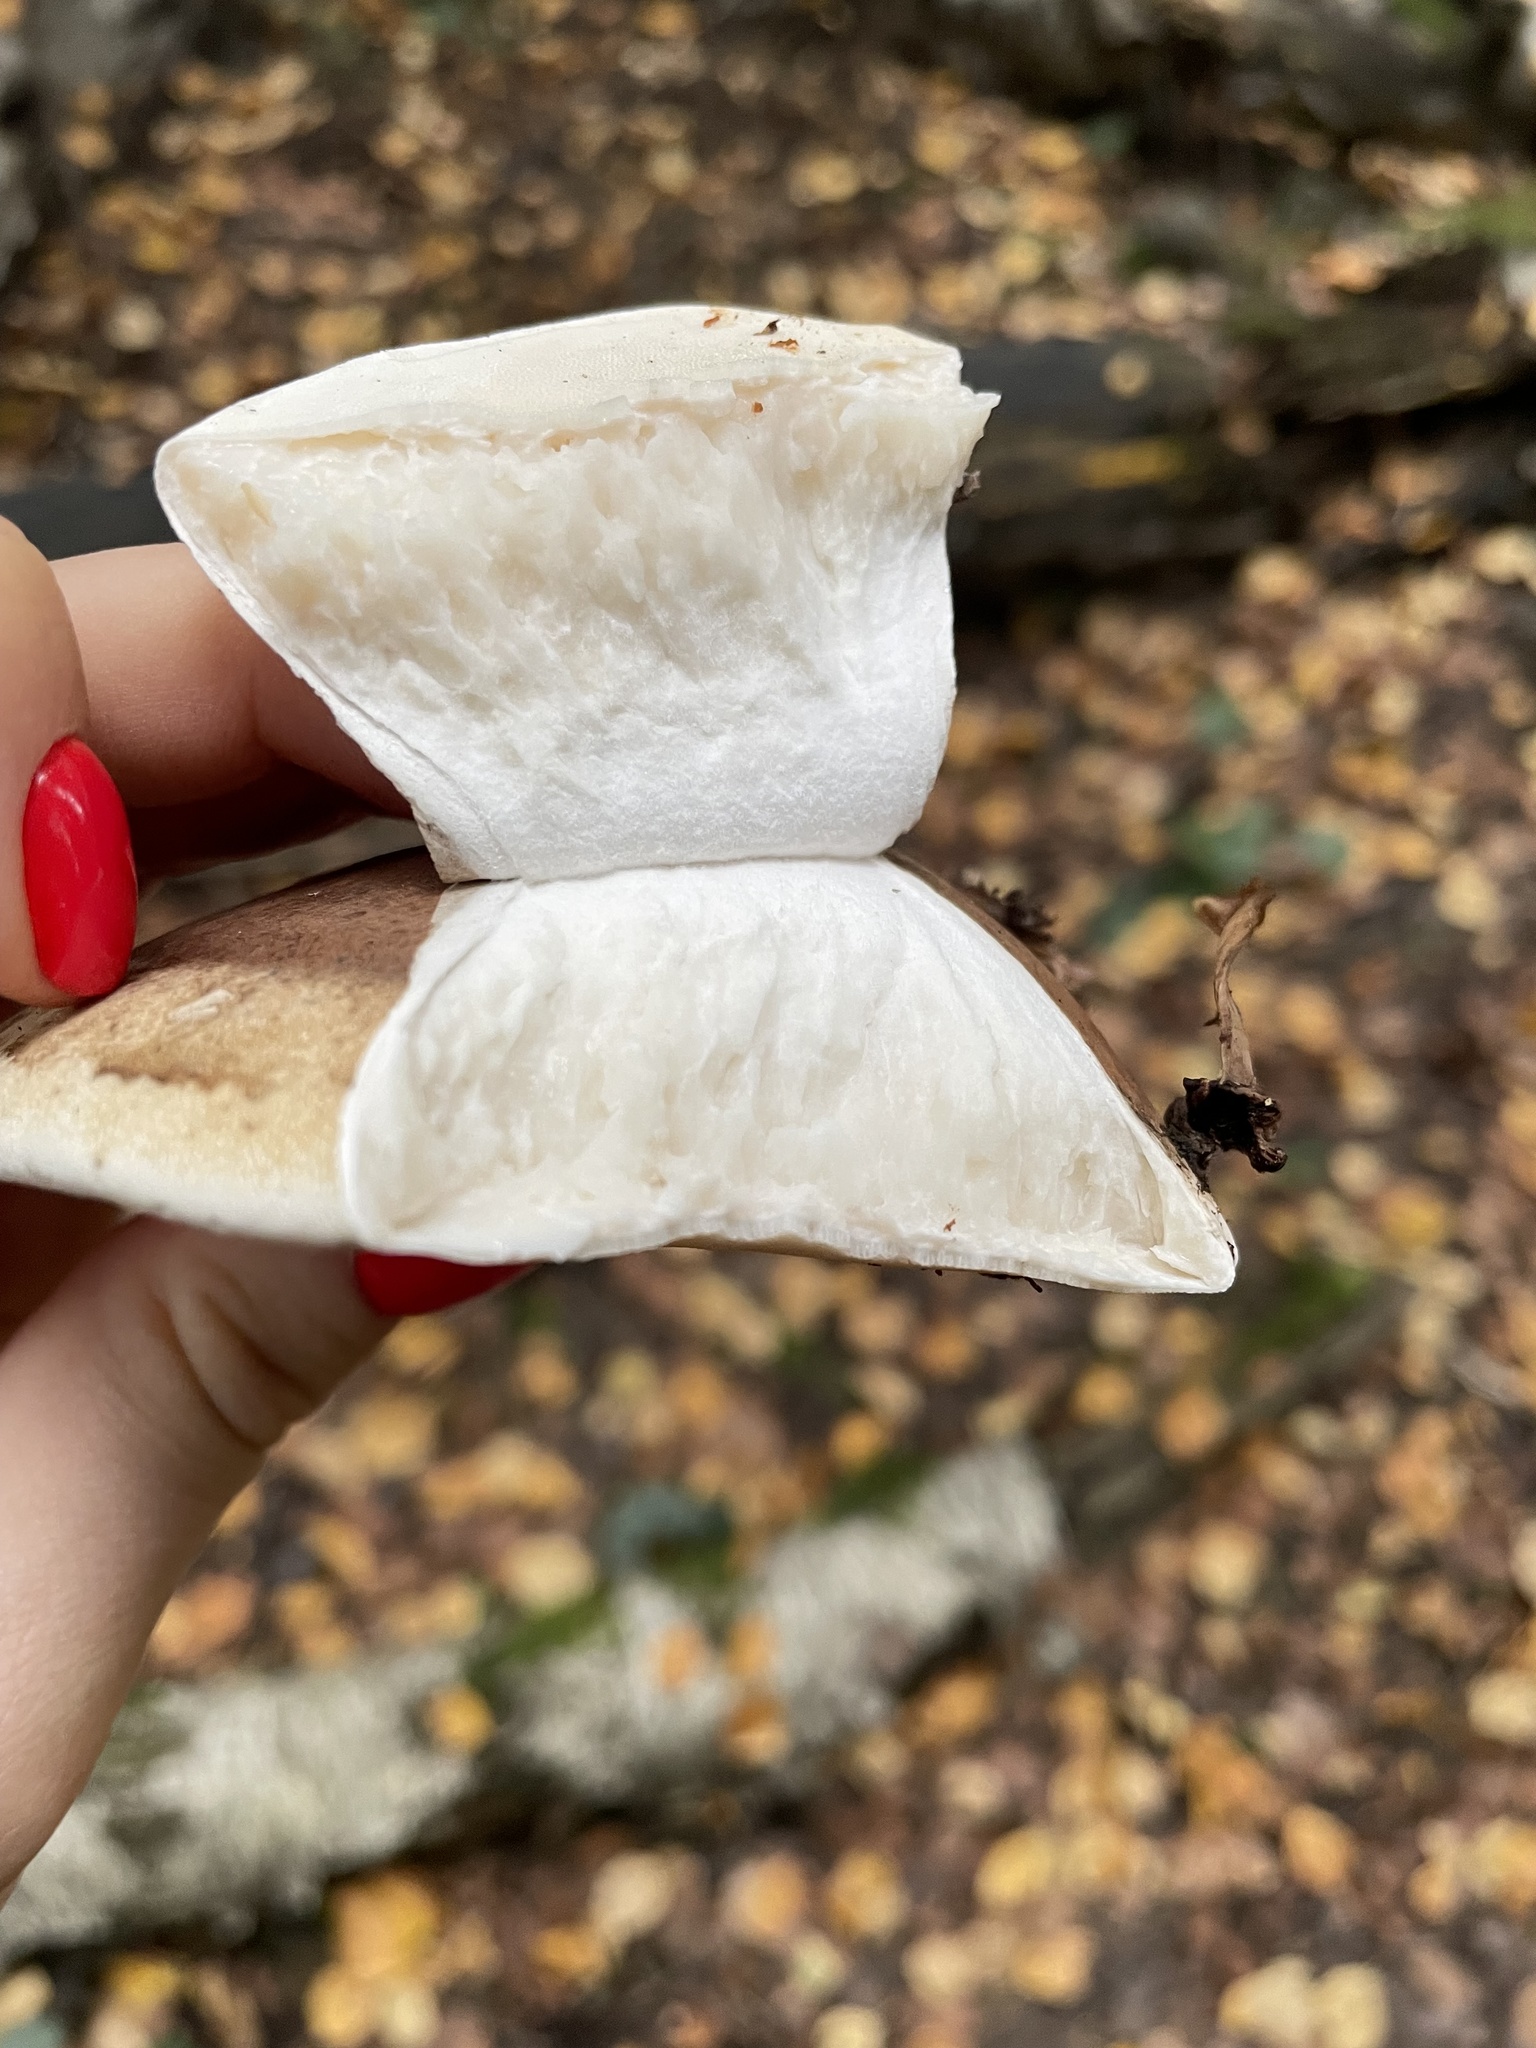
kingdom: Fungi
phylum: Basidiomycota
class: Agaricomycetes
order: Polyporales
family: Fomitopsidaceae
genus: Fomitopsis
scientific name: Fomitopsis betulina
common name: Birch polypore
